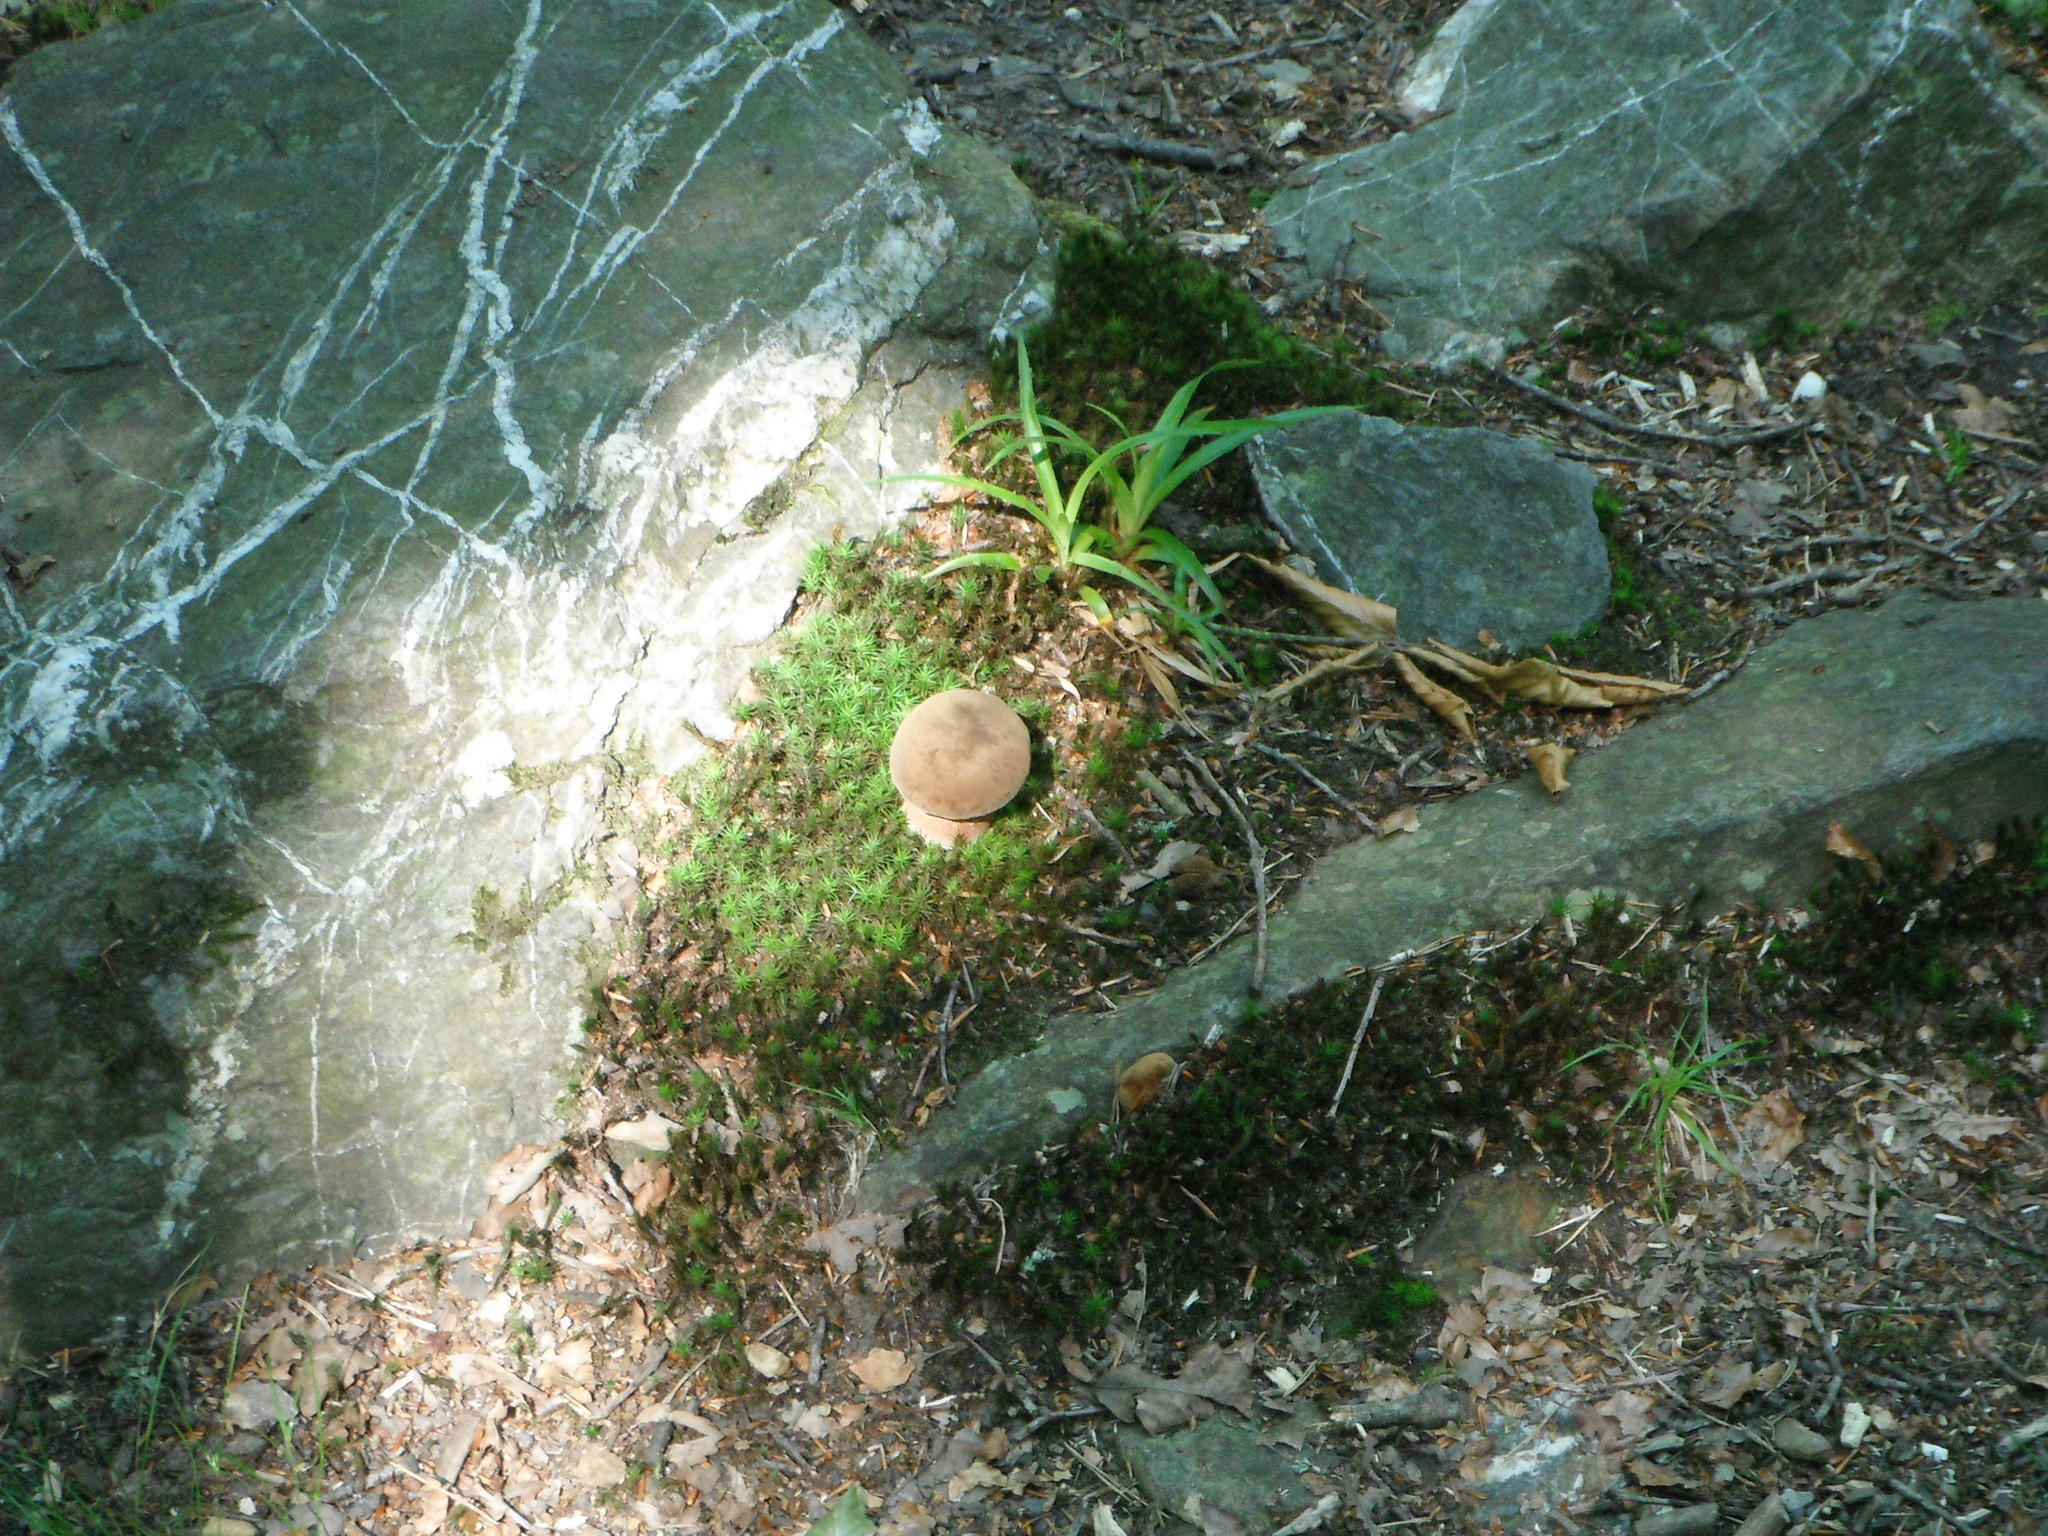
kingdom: Fungi
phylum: Basidiomycota
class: Agaricomycetes
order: Boletales
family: Boletaceae
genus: Neoboletus
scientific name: Neoboletus erythropus
